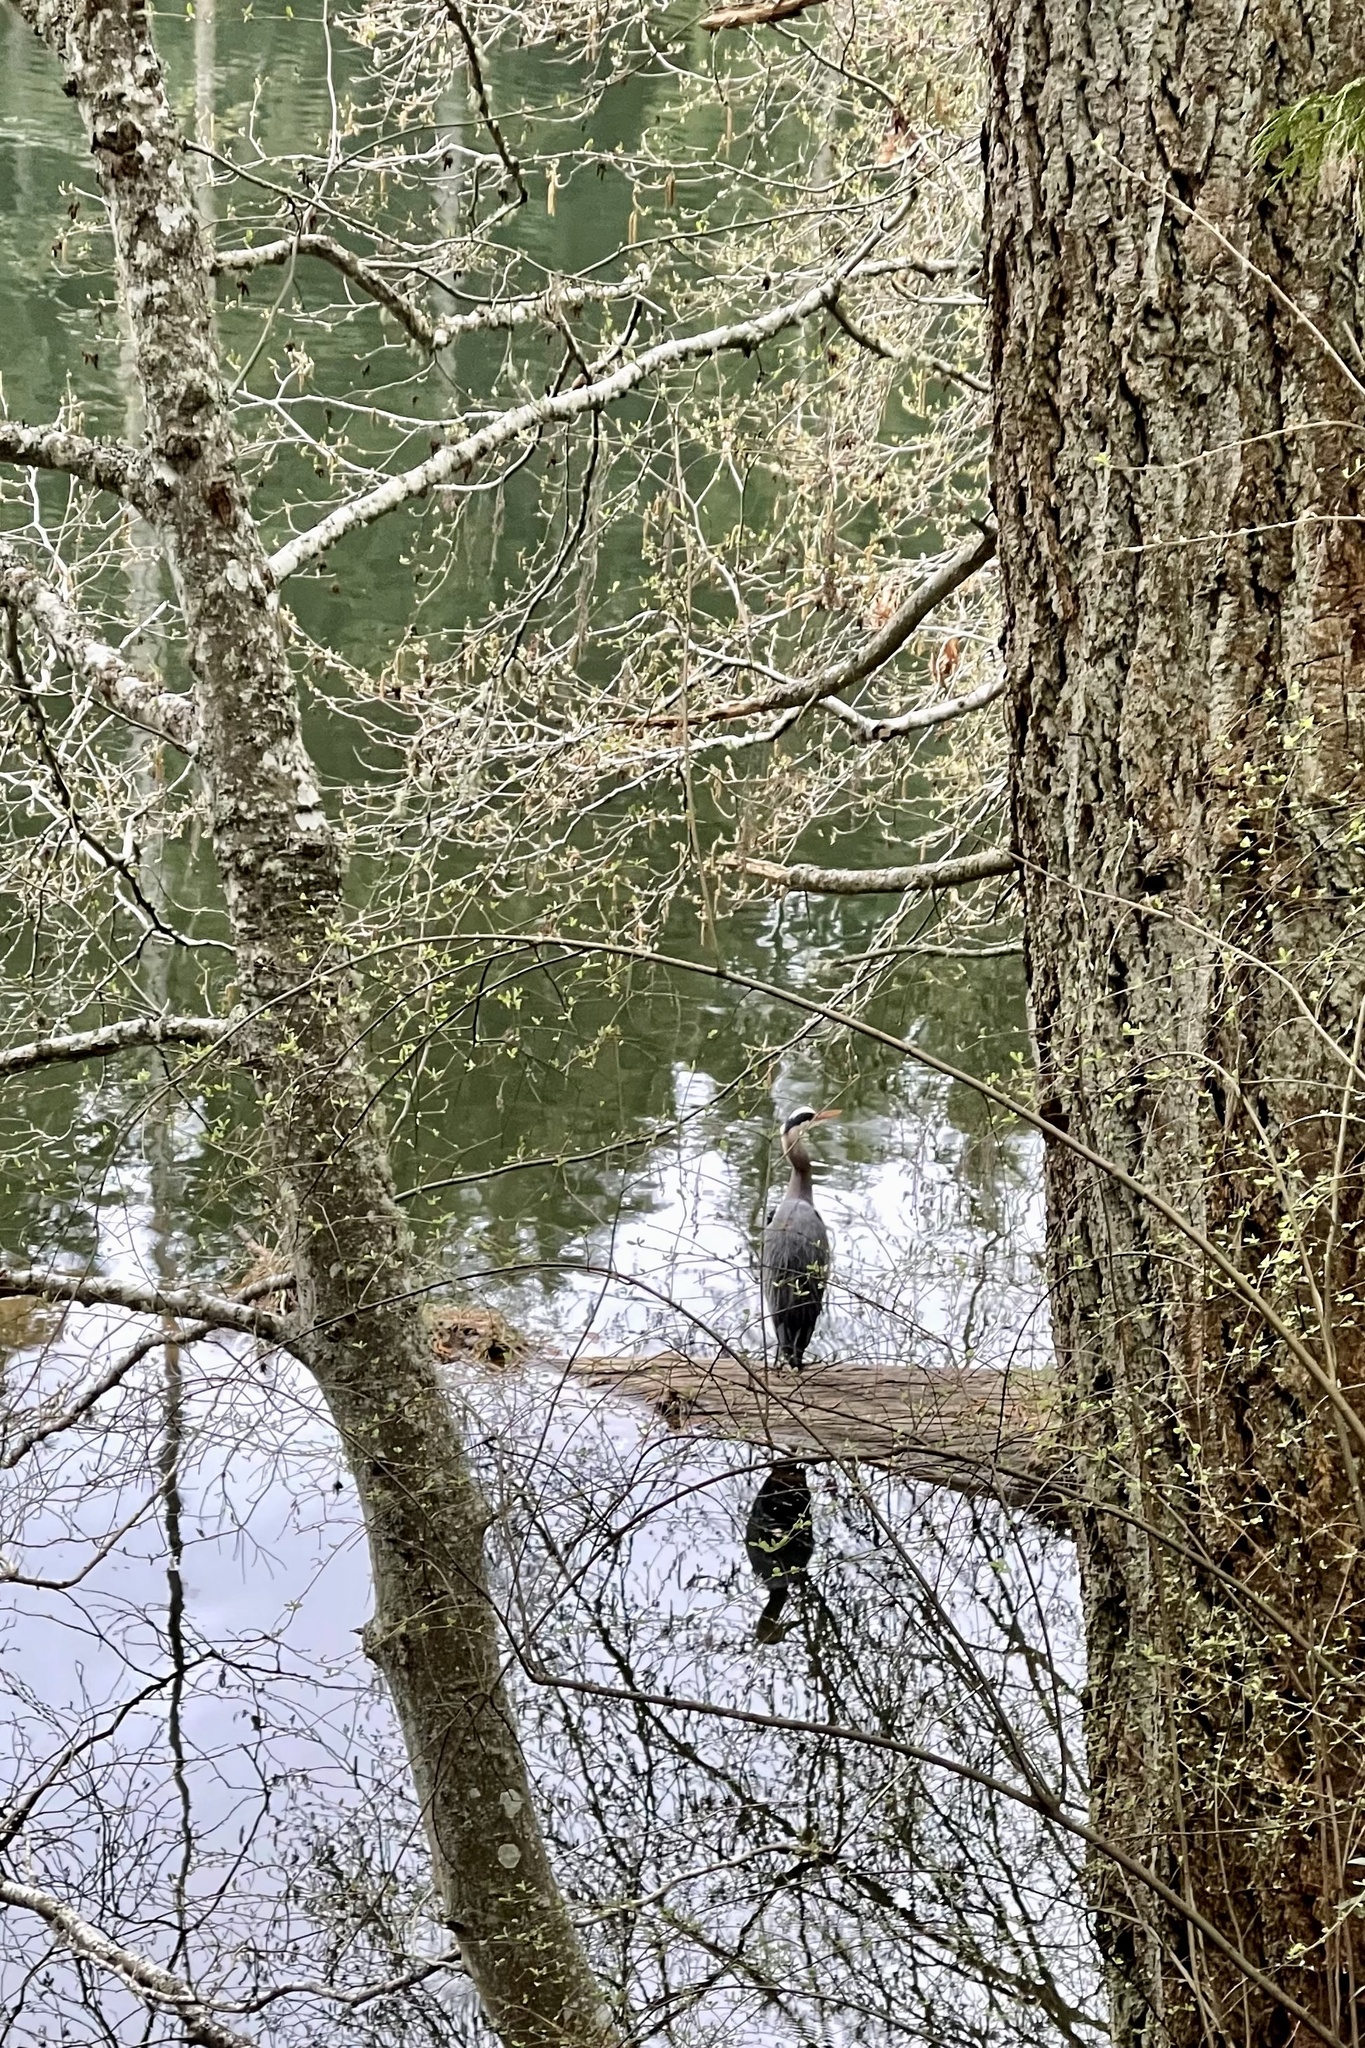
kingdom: Animalia
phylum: Chordata
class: Aves
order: Pelecaniformes
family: Ardeidae
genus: Ardea
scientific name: Ardea herodias
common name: Great blue heron
